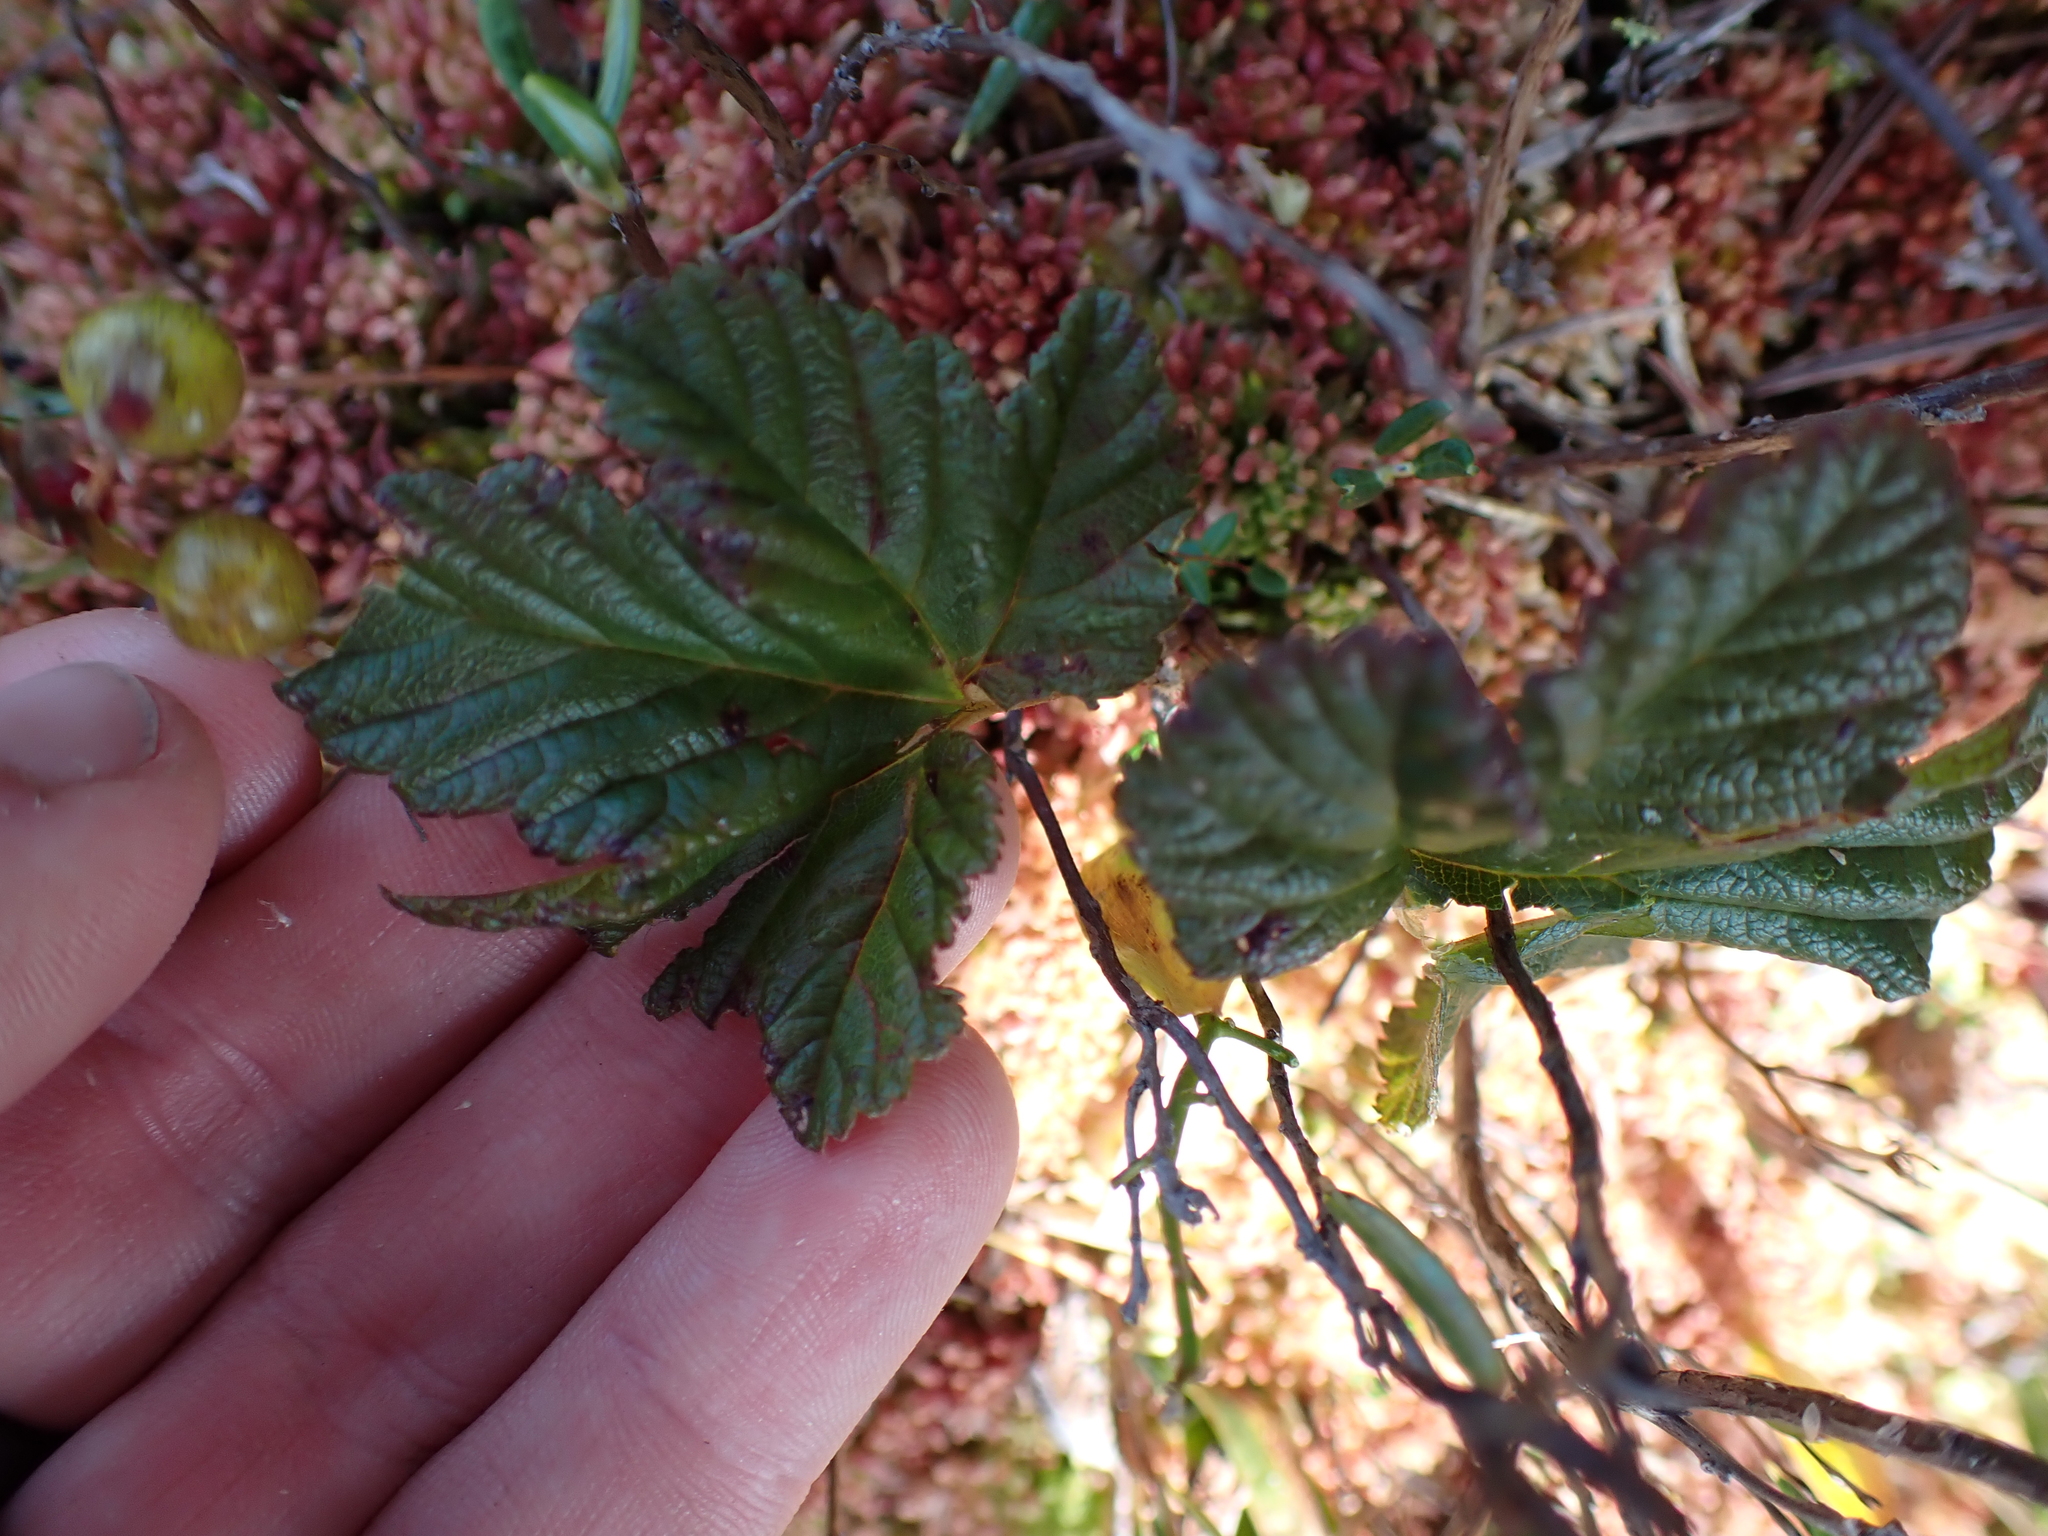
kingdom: Plantae
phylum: Tracheophyta
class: Magnoliopsida
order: Rosales
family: Rosaceae
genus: Rubus
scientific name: Rubus chamaemorus
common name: Cloudberry
